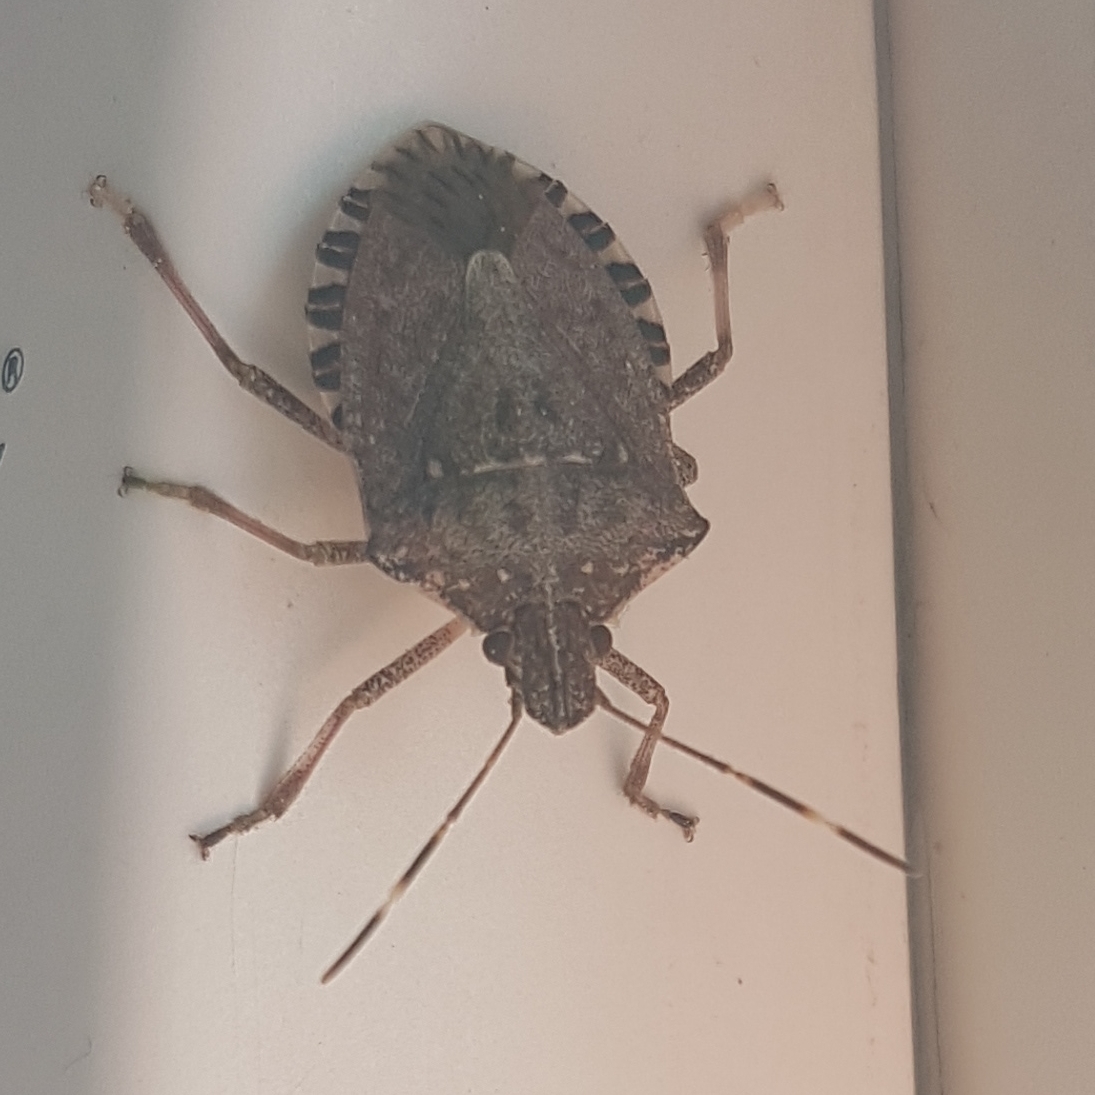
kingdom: Animalia
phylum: Arthropoda
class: Insecta
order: Hemiptera
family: Pentatomidae
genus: Halyomorpha
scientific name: Halyomorpha halys
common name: Brown marmorated stink bug
